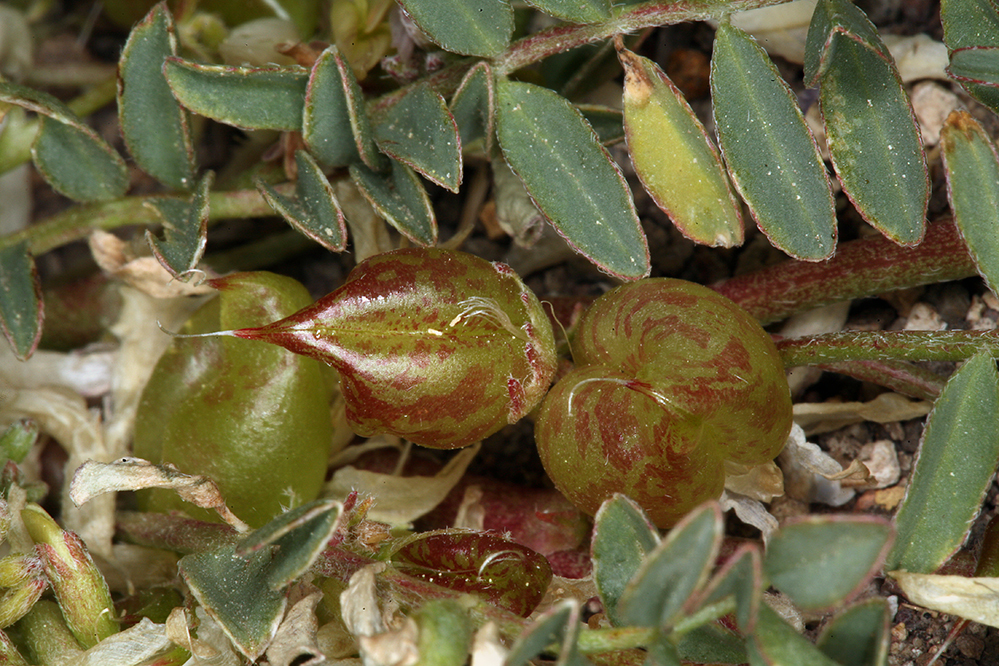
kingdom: Plantae
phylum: Tracheophyta
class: Magnoliopsida
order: Fabales
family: Fabaceae
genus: Astragalus
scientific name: Astragalus lentiginosus
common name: Freckled milkvetch
